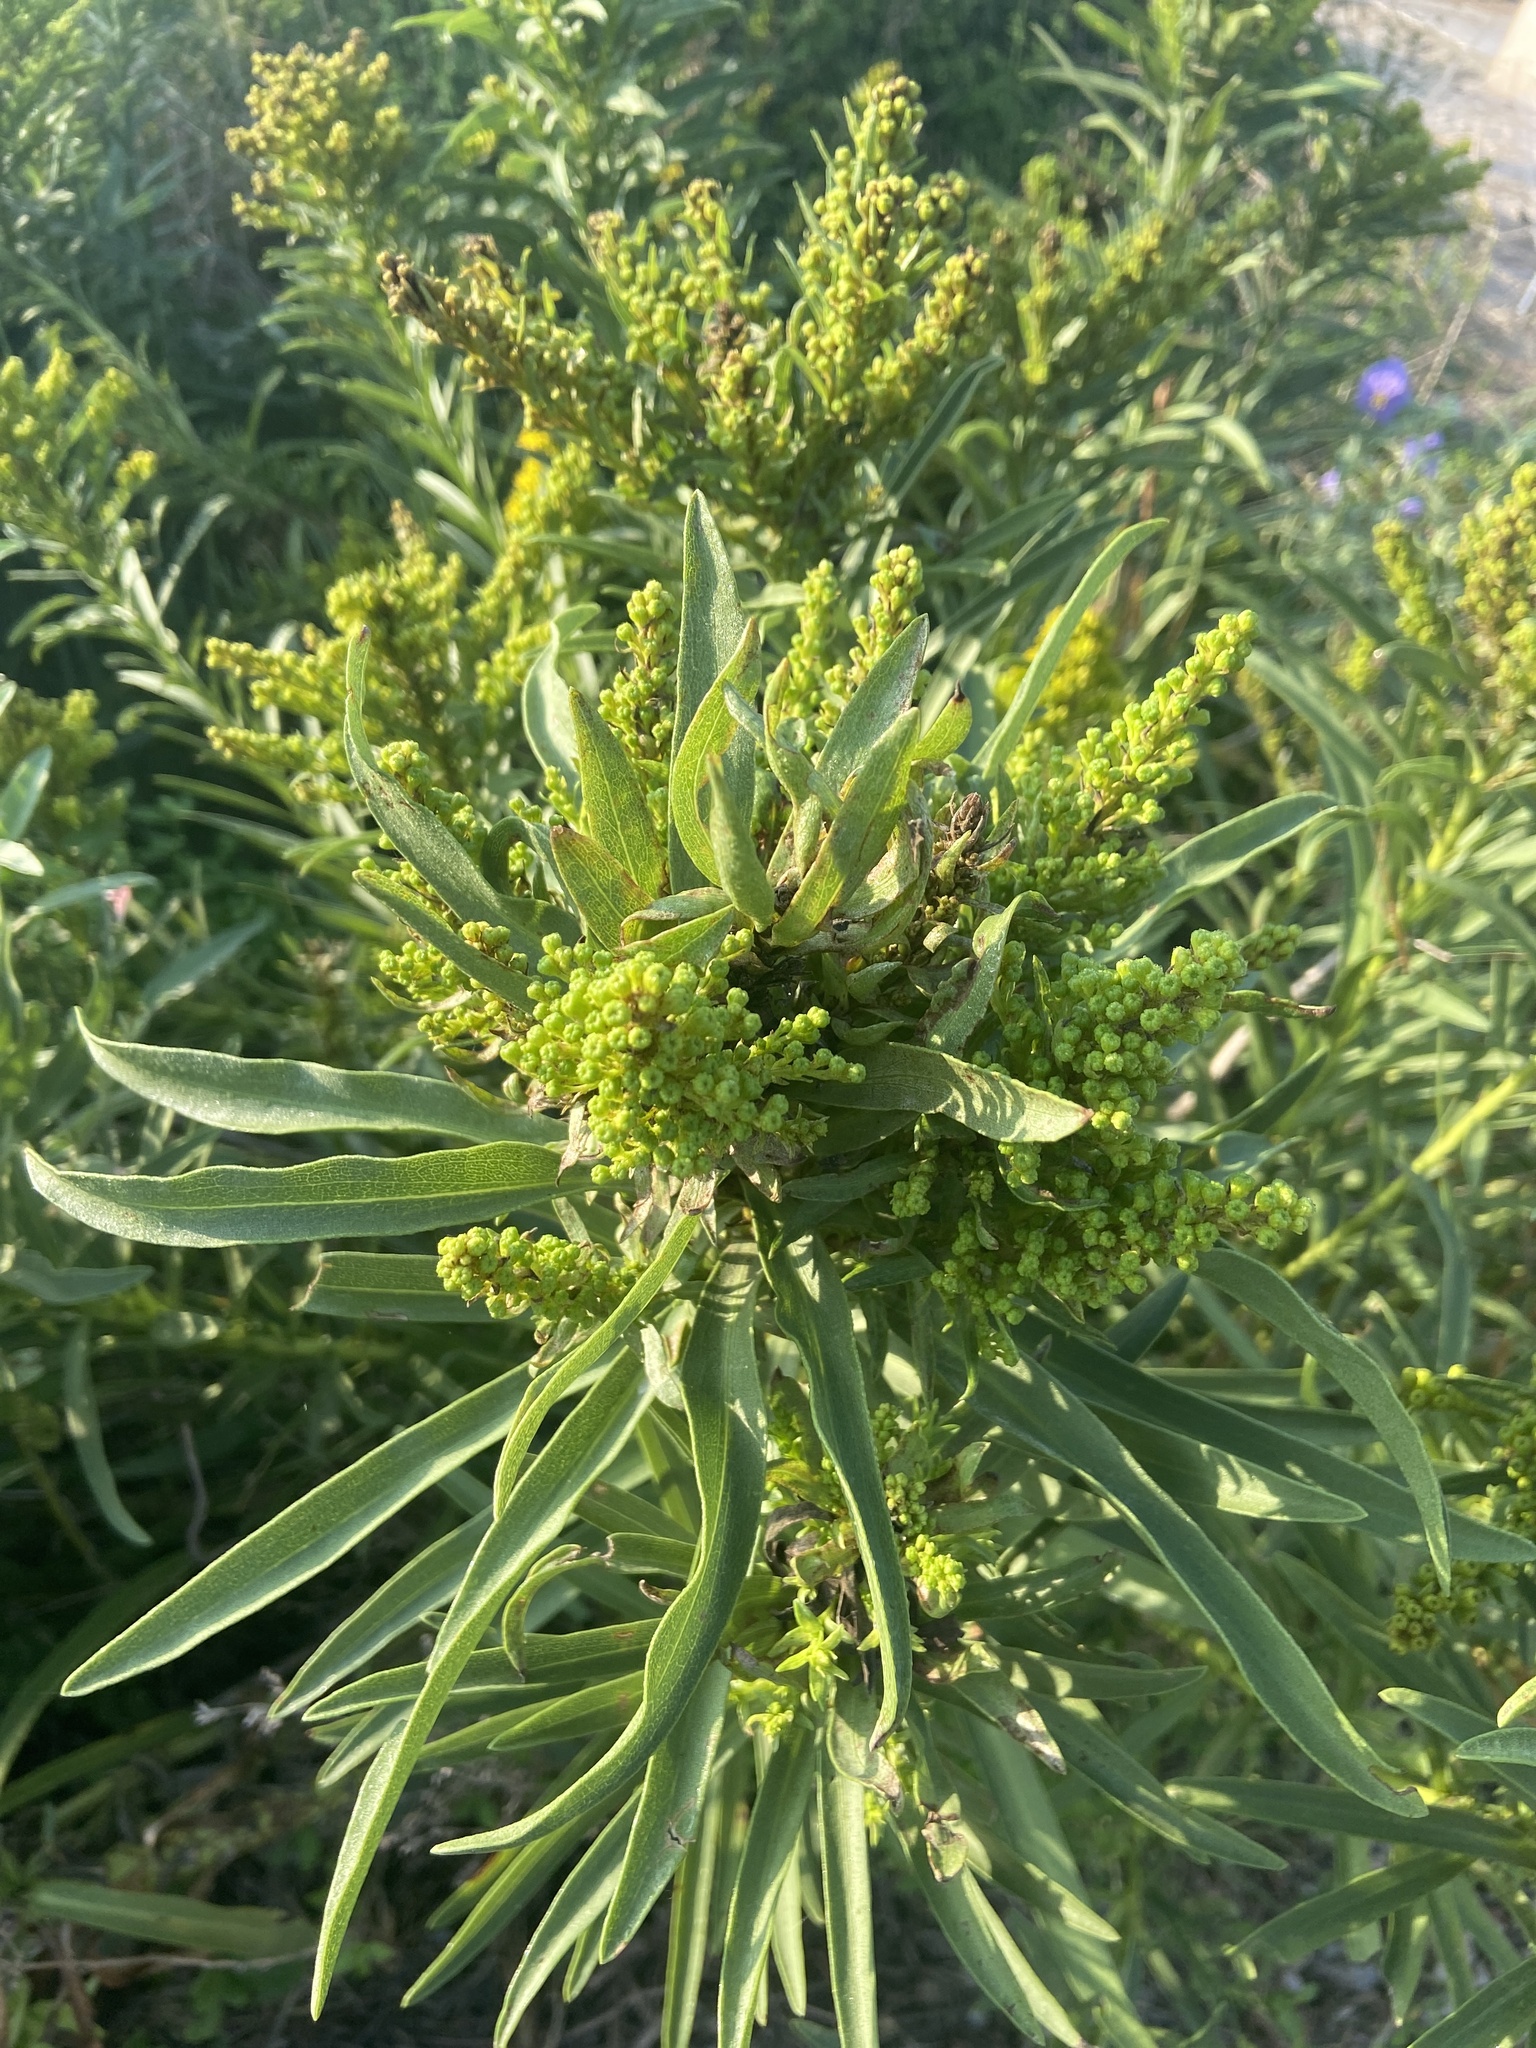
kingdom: Plantae
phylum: Tracheophyta
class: Magnoliopsida
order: Asterales
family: Asteraceae
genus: Solidago
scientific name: Solidago mexicana
